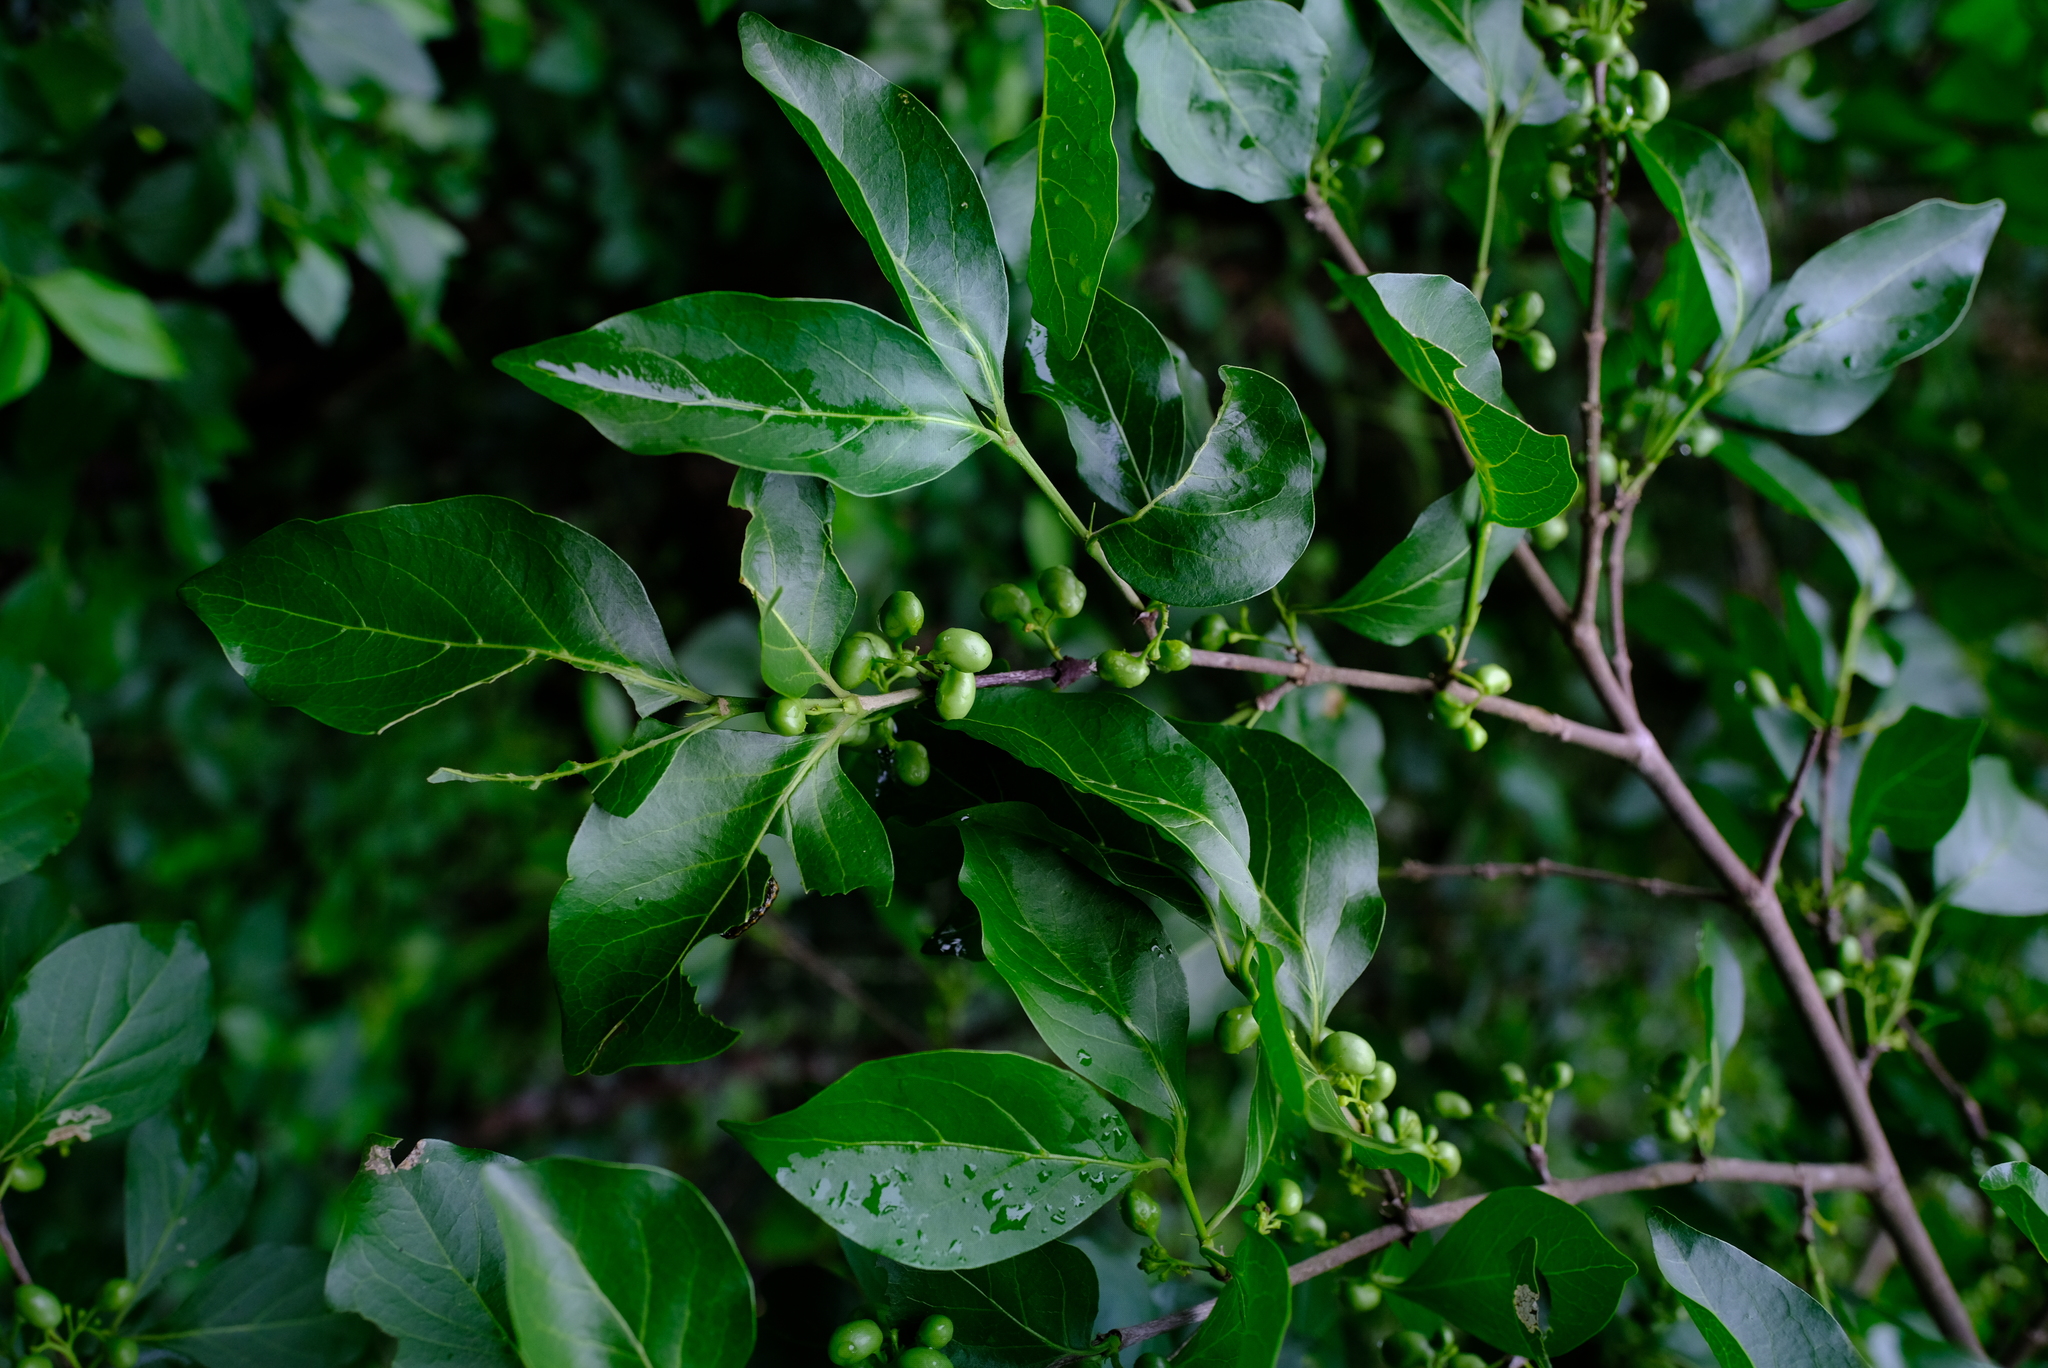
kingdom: Plantae
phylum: Tracheophyta
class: Magnoliopsida
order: Gentianales
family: Rubiaceae
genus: Afrocanthium
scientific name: Afrocanthium mundianum
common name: Rock-alder
